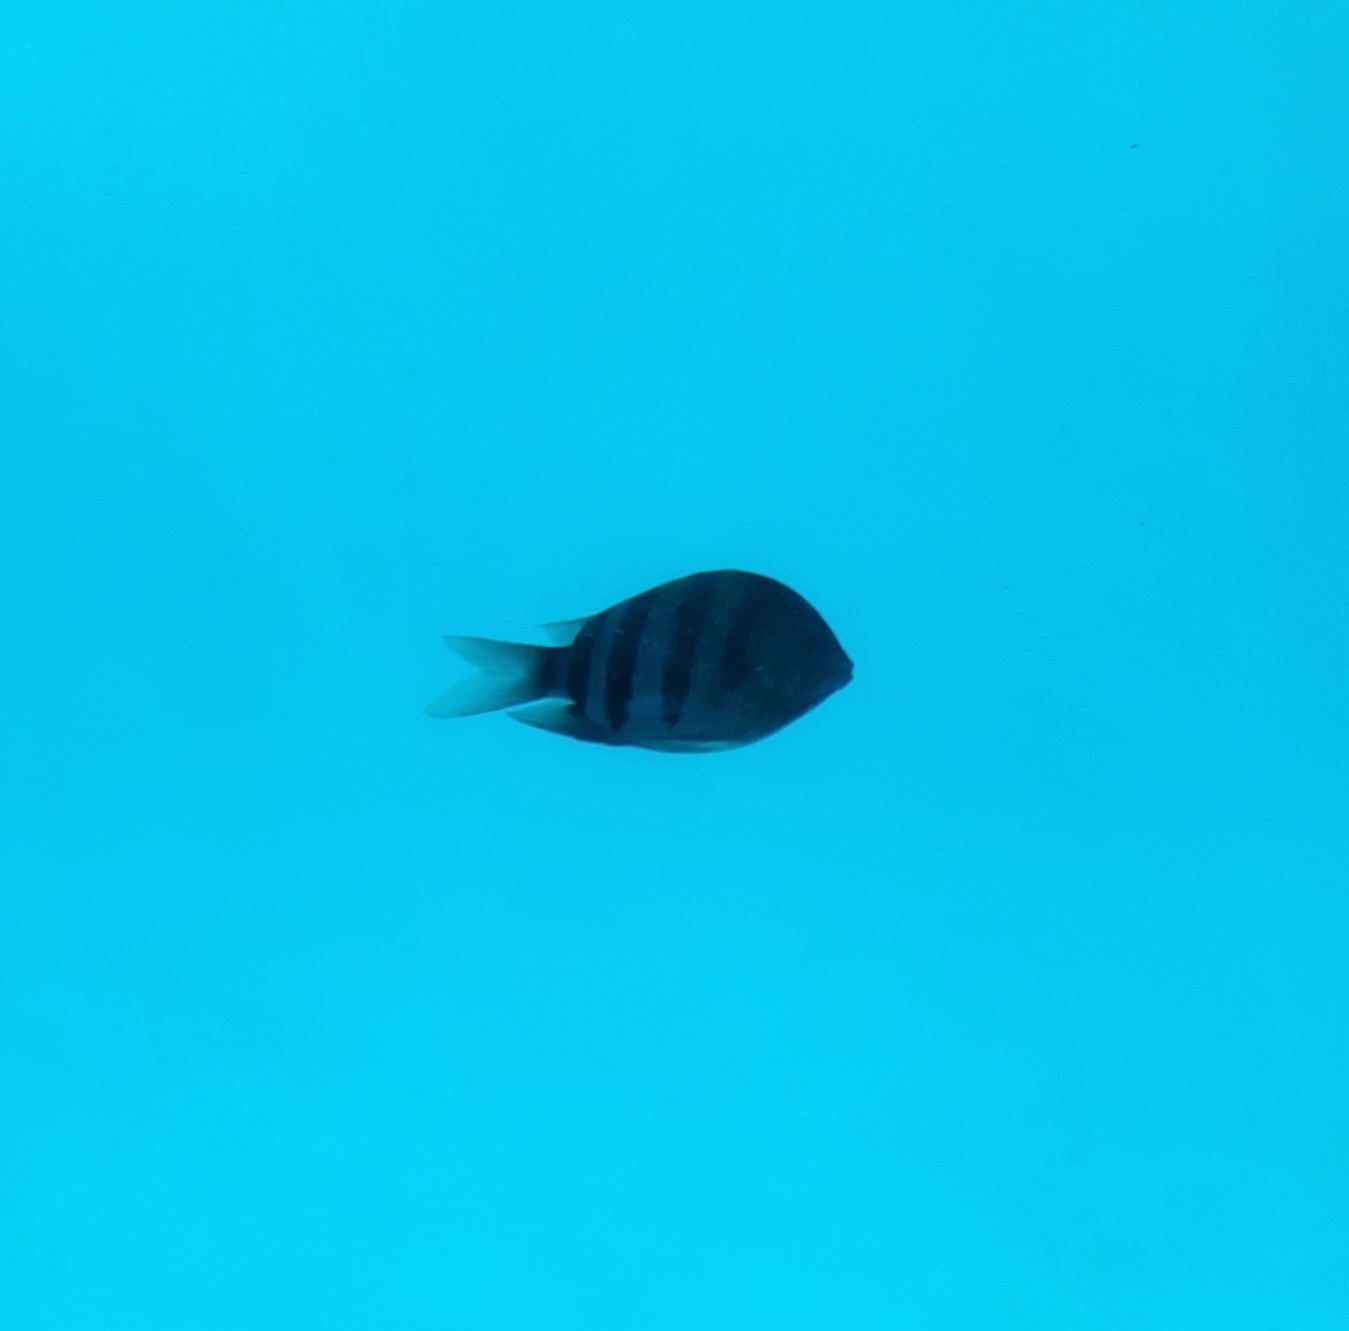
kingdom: Animalia
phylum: Chordata
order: Perciformes
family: Pomacentridae
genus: Abudefduf
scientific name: Abudefduf vaigiensis
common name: Indo-pacific sergeant
